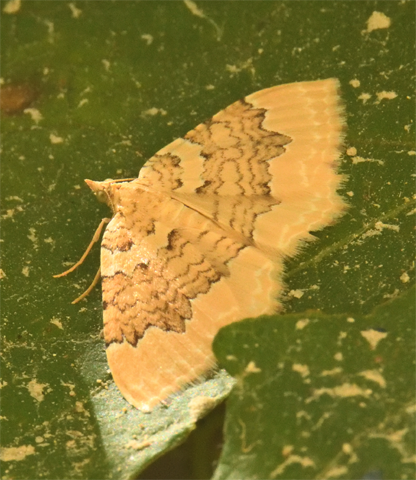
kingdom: Animalia
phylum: Arthropoda
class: Insecta
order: Lepidoptera
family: Geometridae
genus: Camptogramma
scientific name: Camptogramma bilineata
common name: Yellow shell
